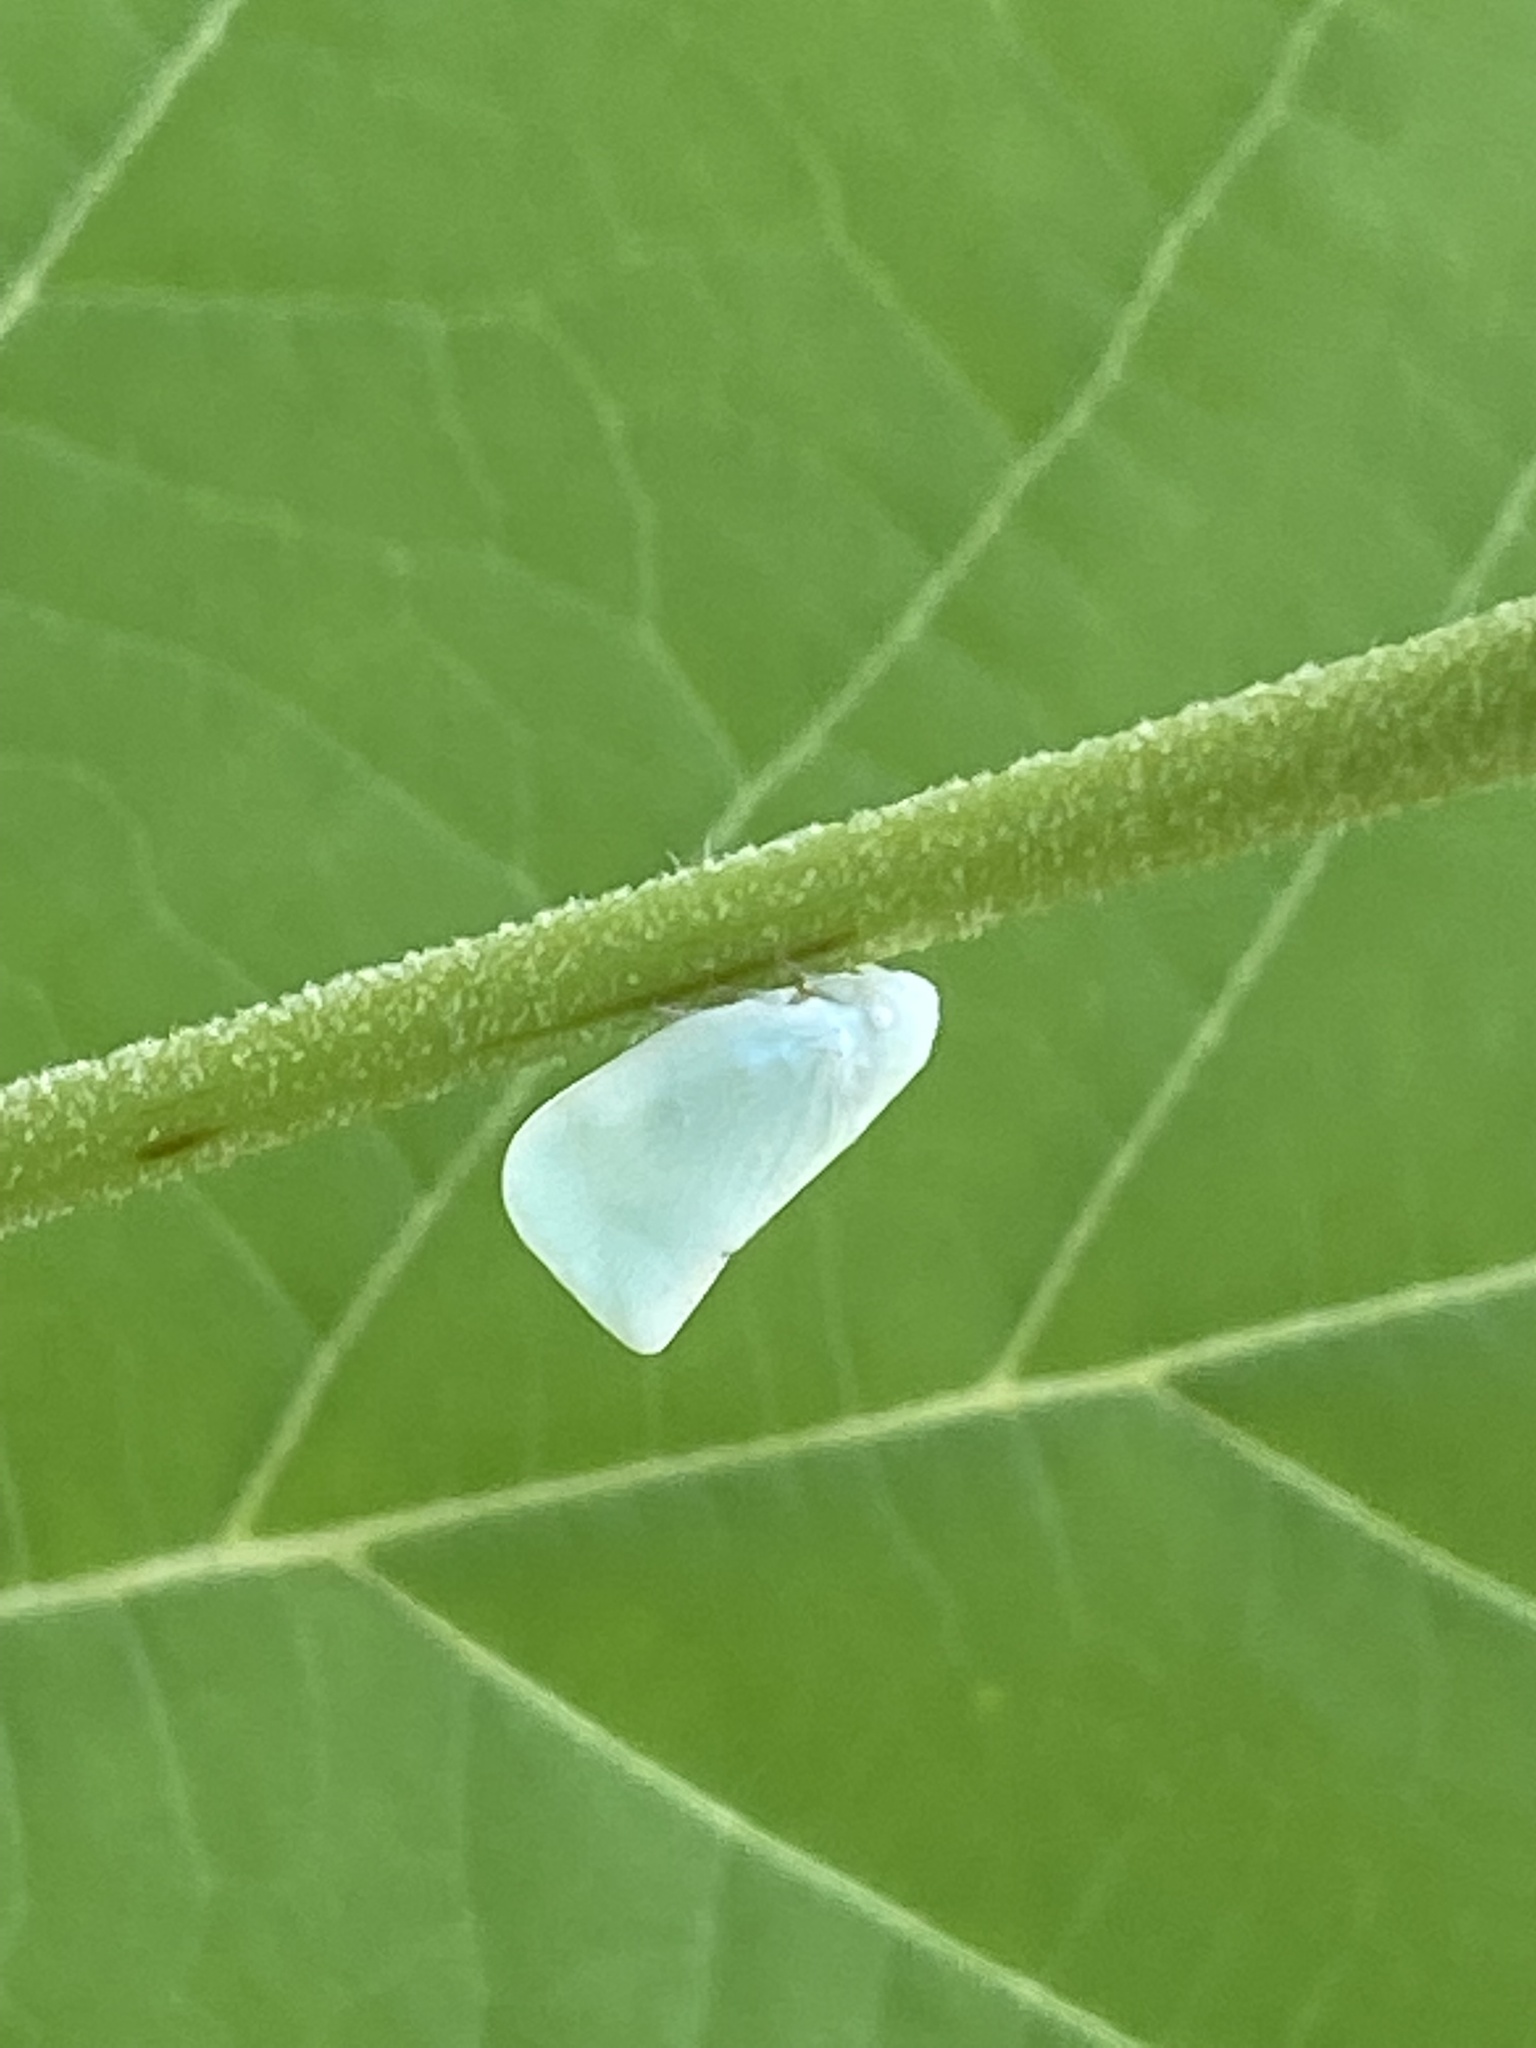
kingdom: Animalia
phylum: Arthropoda
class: Insecta
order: Hemiptera
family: Flatidae
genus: Flatormenis
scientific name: Flatormenis proxima
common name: Northern flatid planthopper
